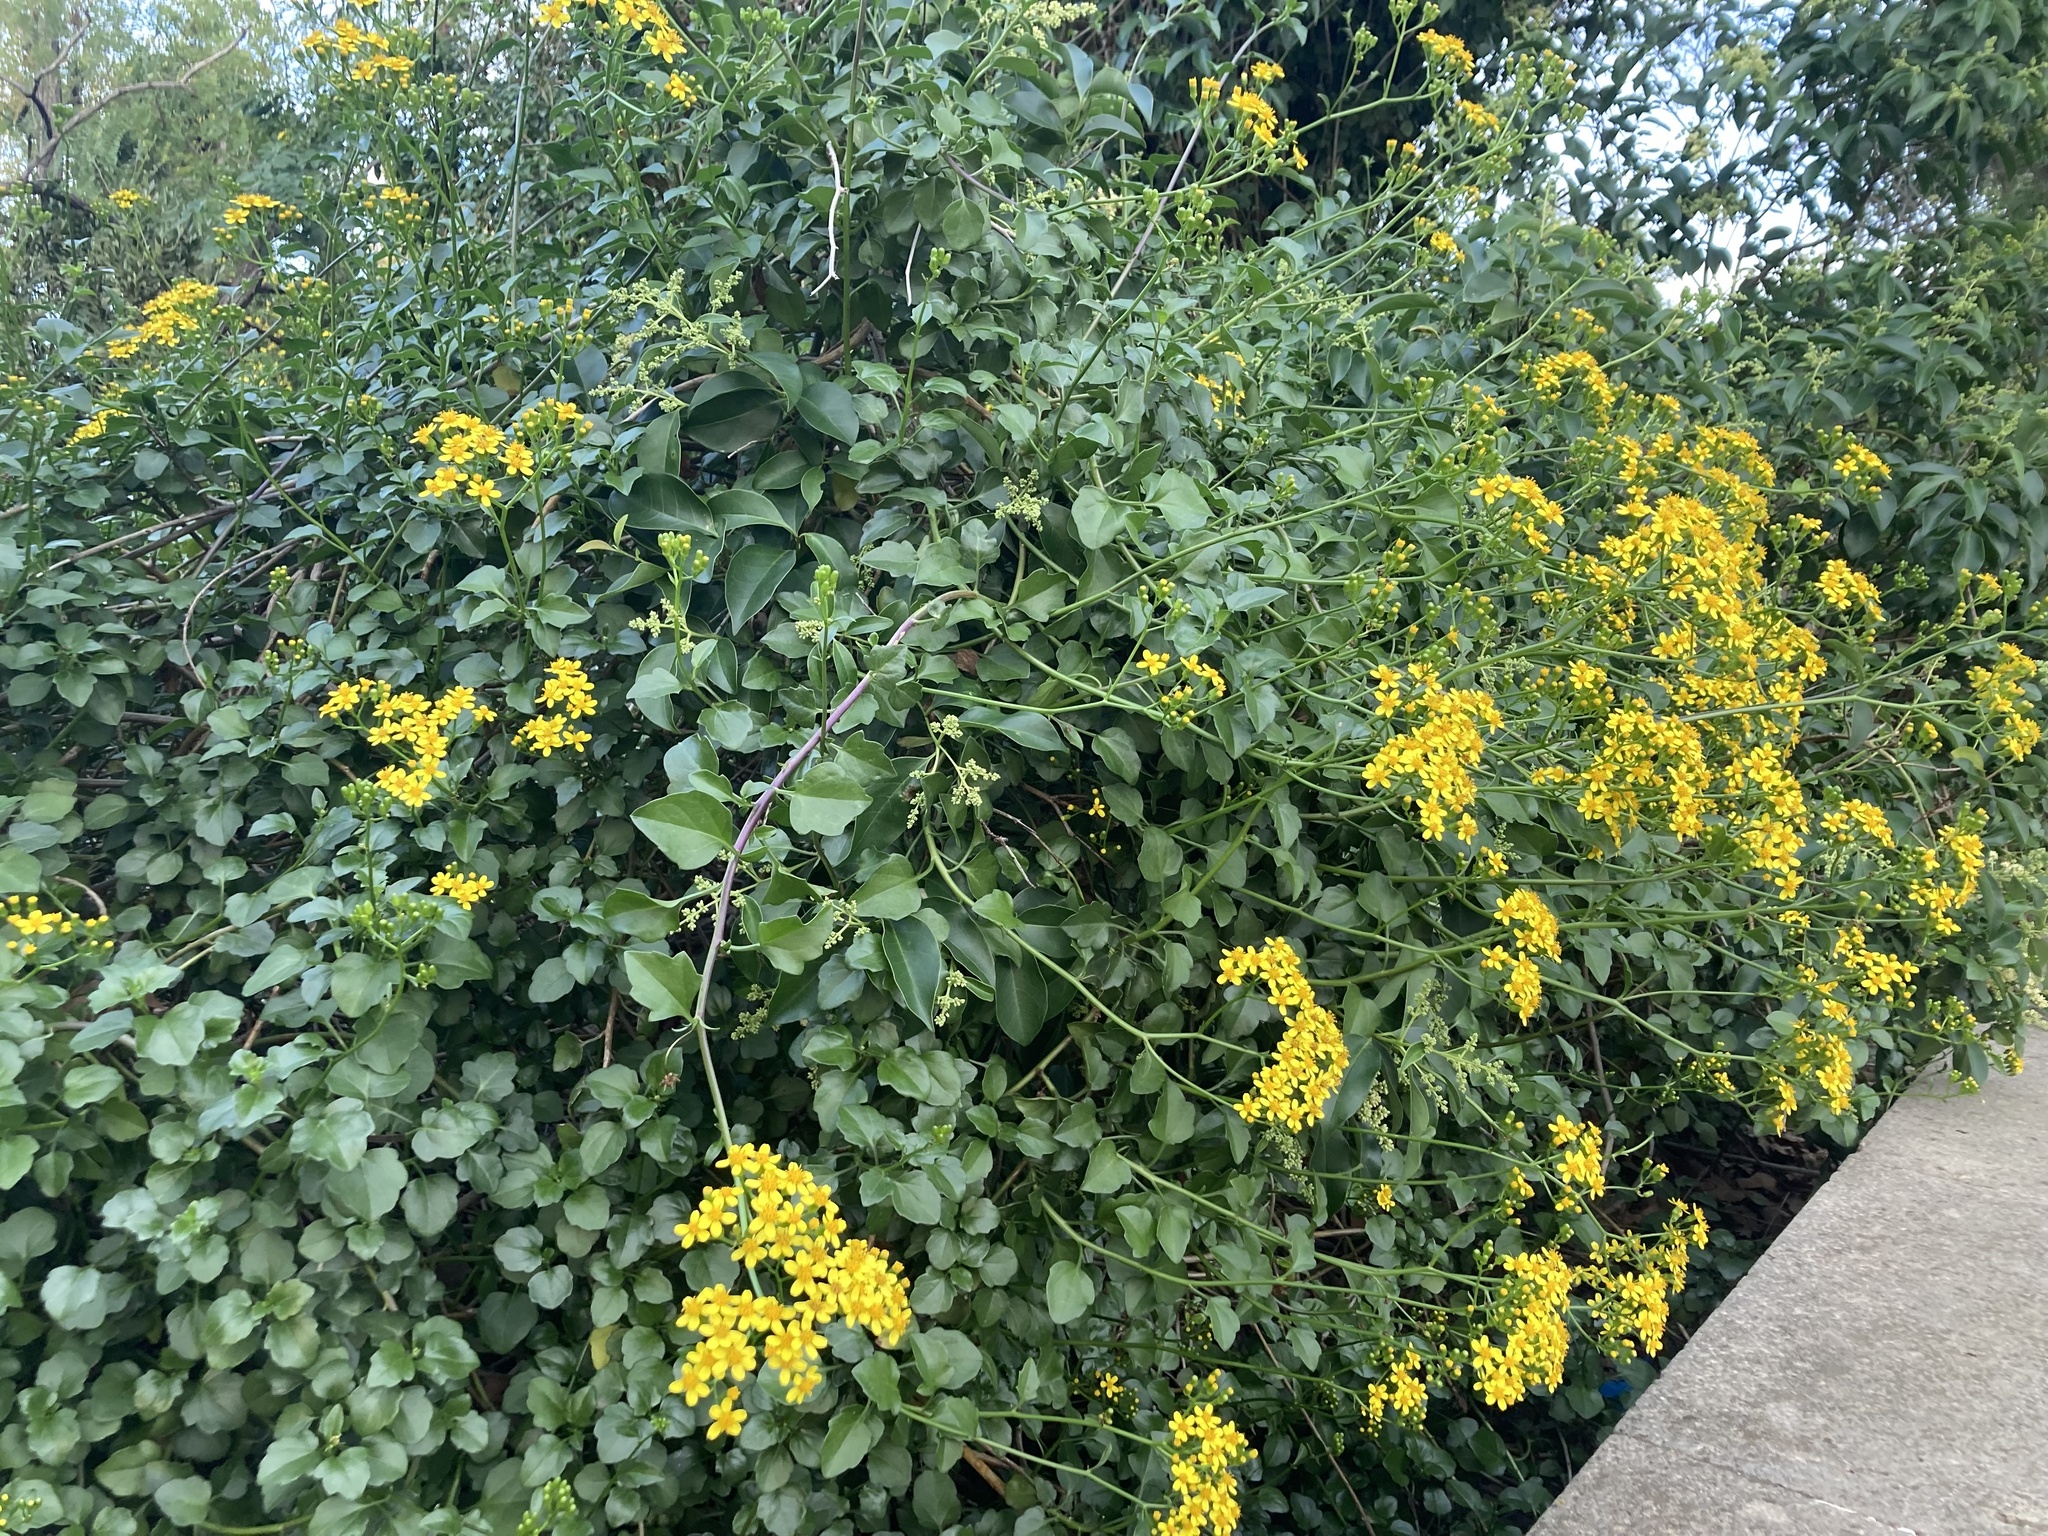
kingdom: Plantae
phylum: Tracheophyta
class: Magnoliopsida
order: Asterales
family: Asteraceae
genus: Senecio
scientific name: Senecio angulatus
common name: Climbing groundsel
